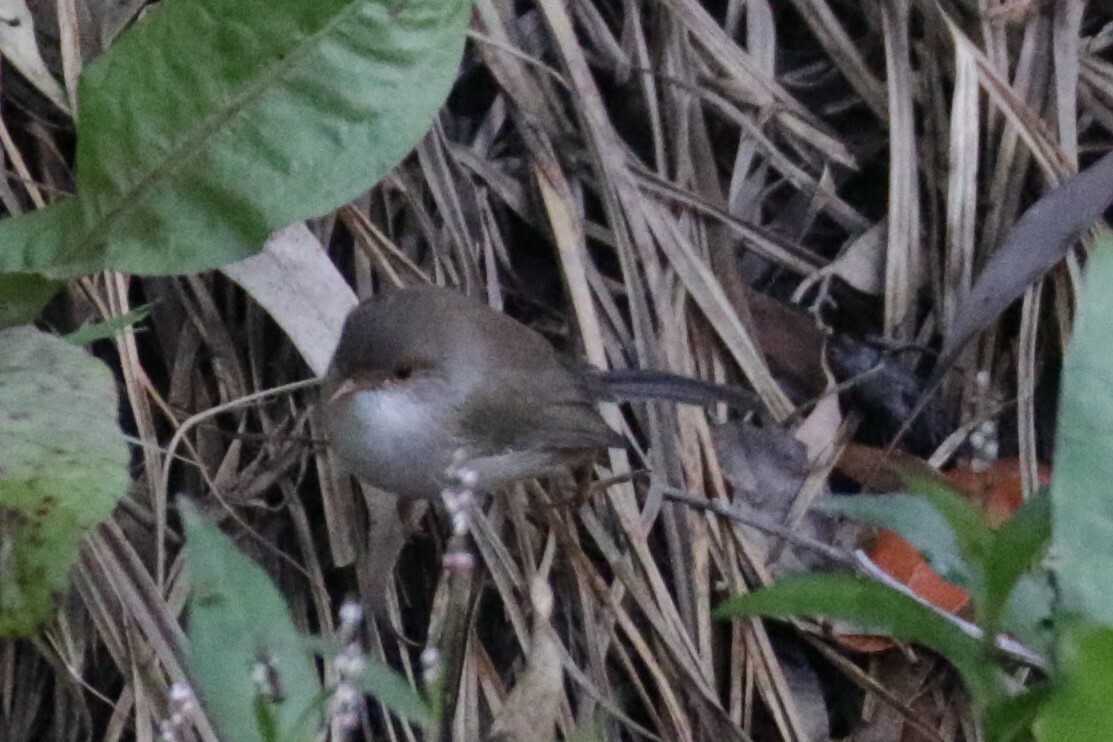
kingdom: Animalia
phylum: Chordata
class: Aves
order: Passeriformes
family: Maluridae
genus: Malurus
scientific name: Malurus cyaneus
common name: Superb fairywren
